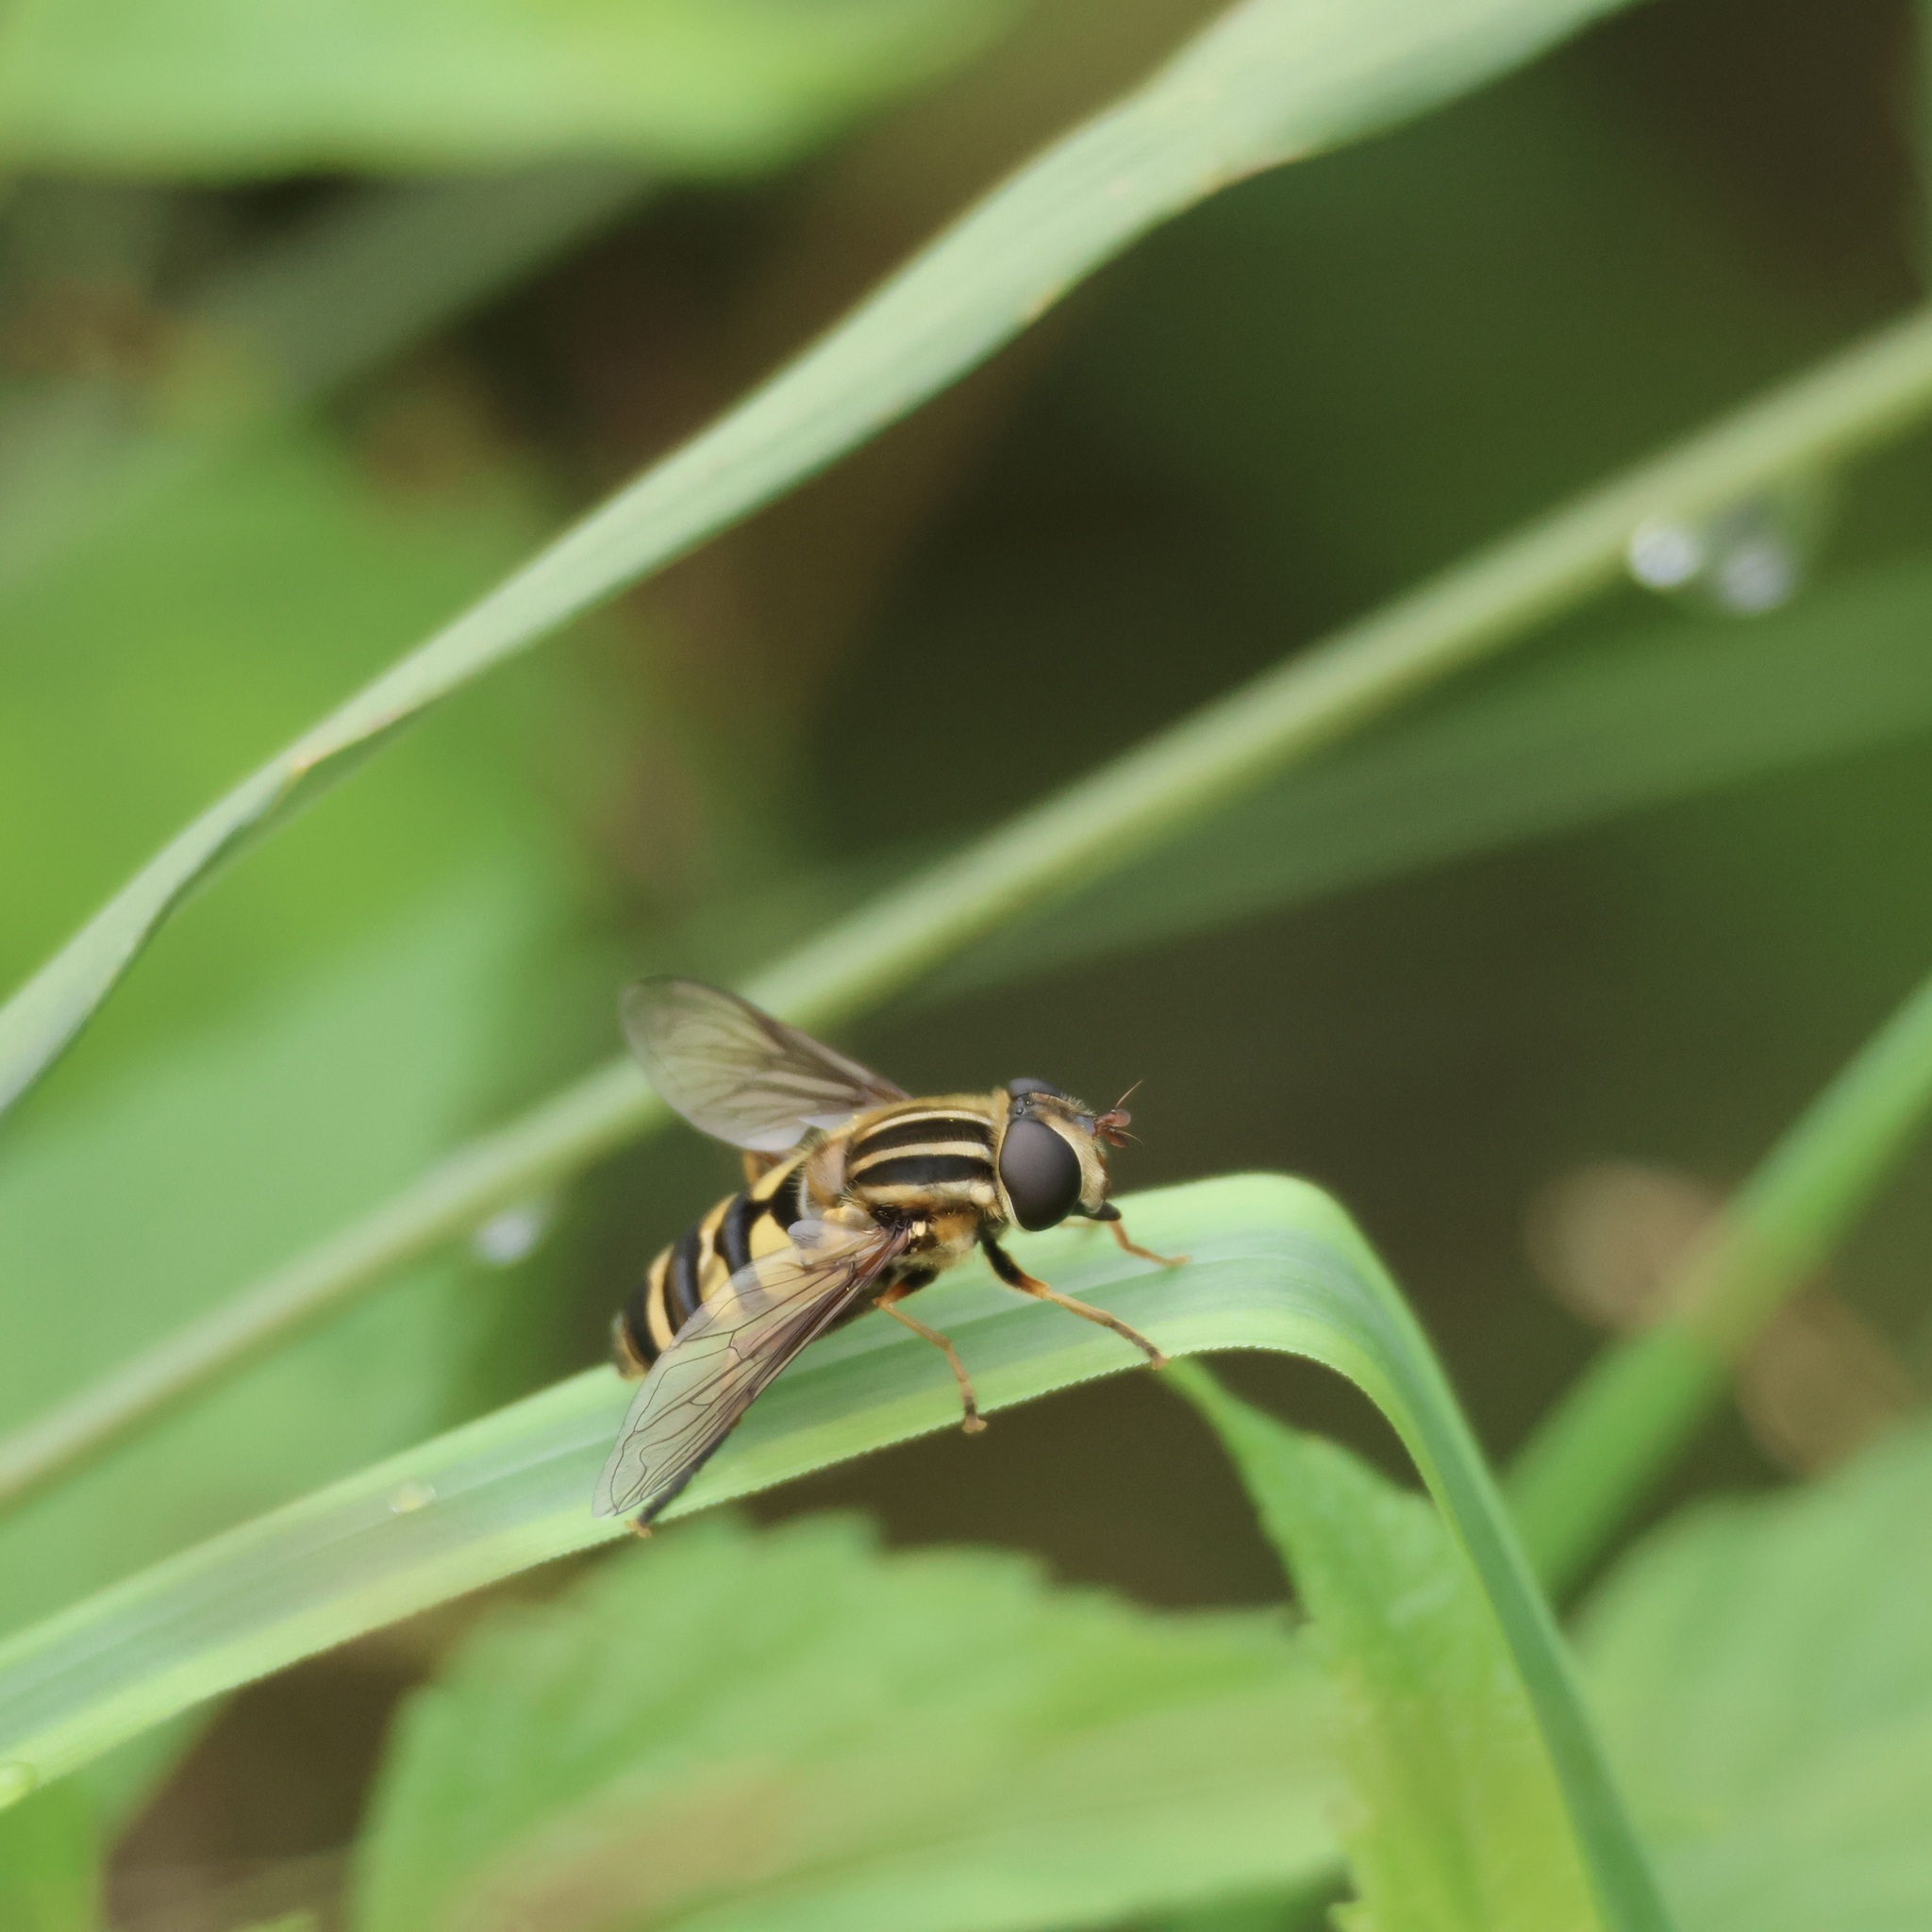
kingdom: Animalia
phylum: Arthropoda
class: Insecta
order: Diptera
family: Syrphidae
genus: Helophilus
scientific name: Helophilus fasciatus
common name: Narrow-headed marsh fly
